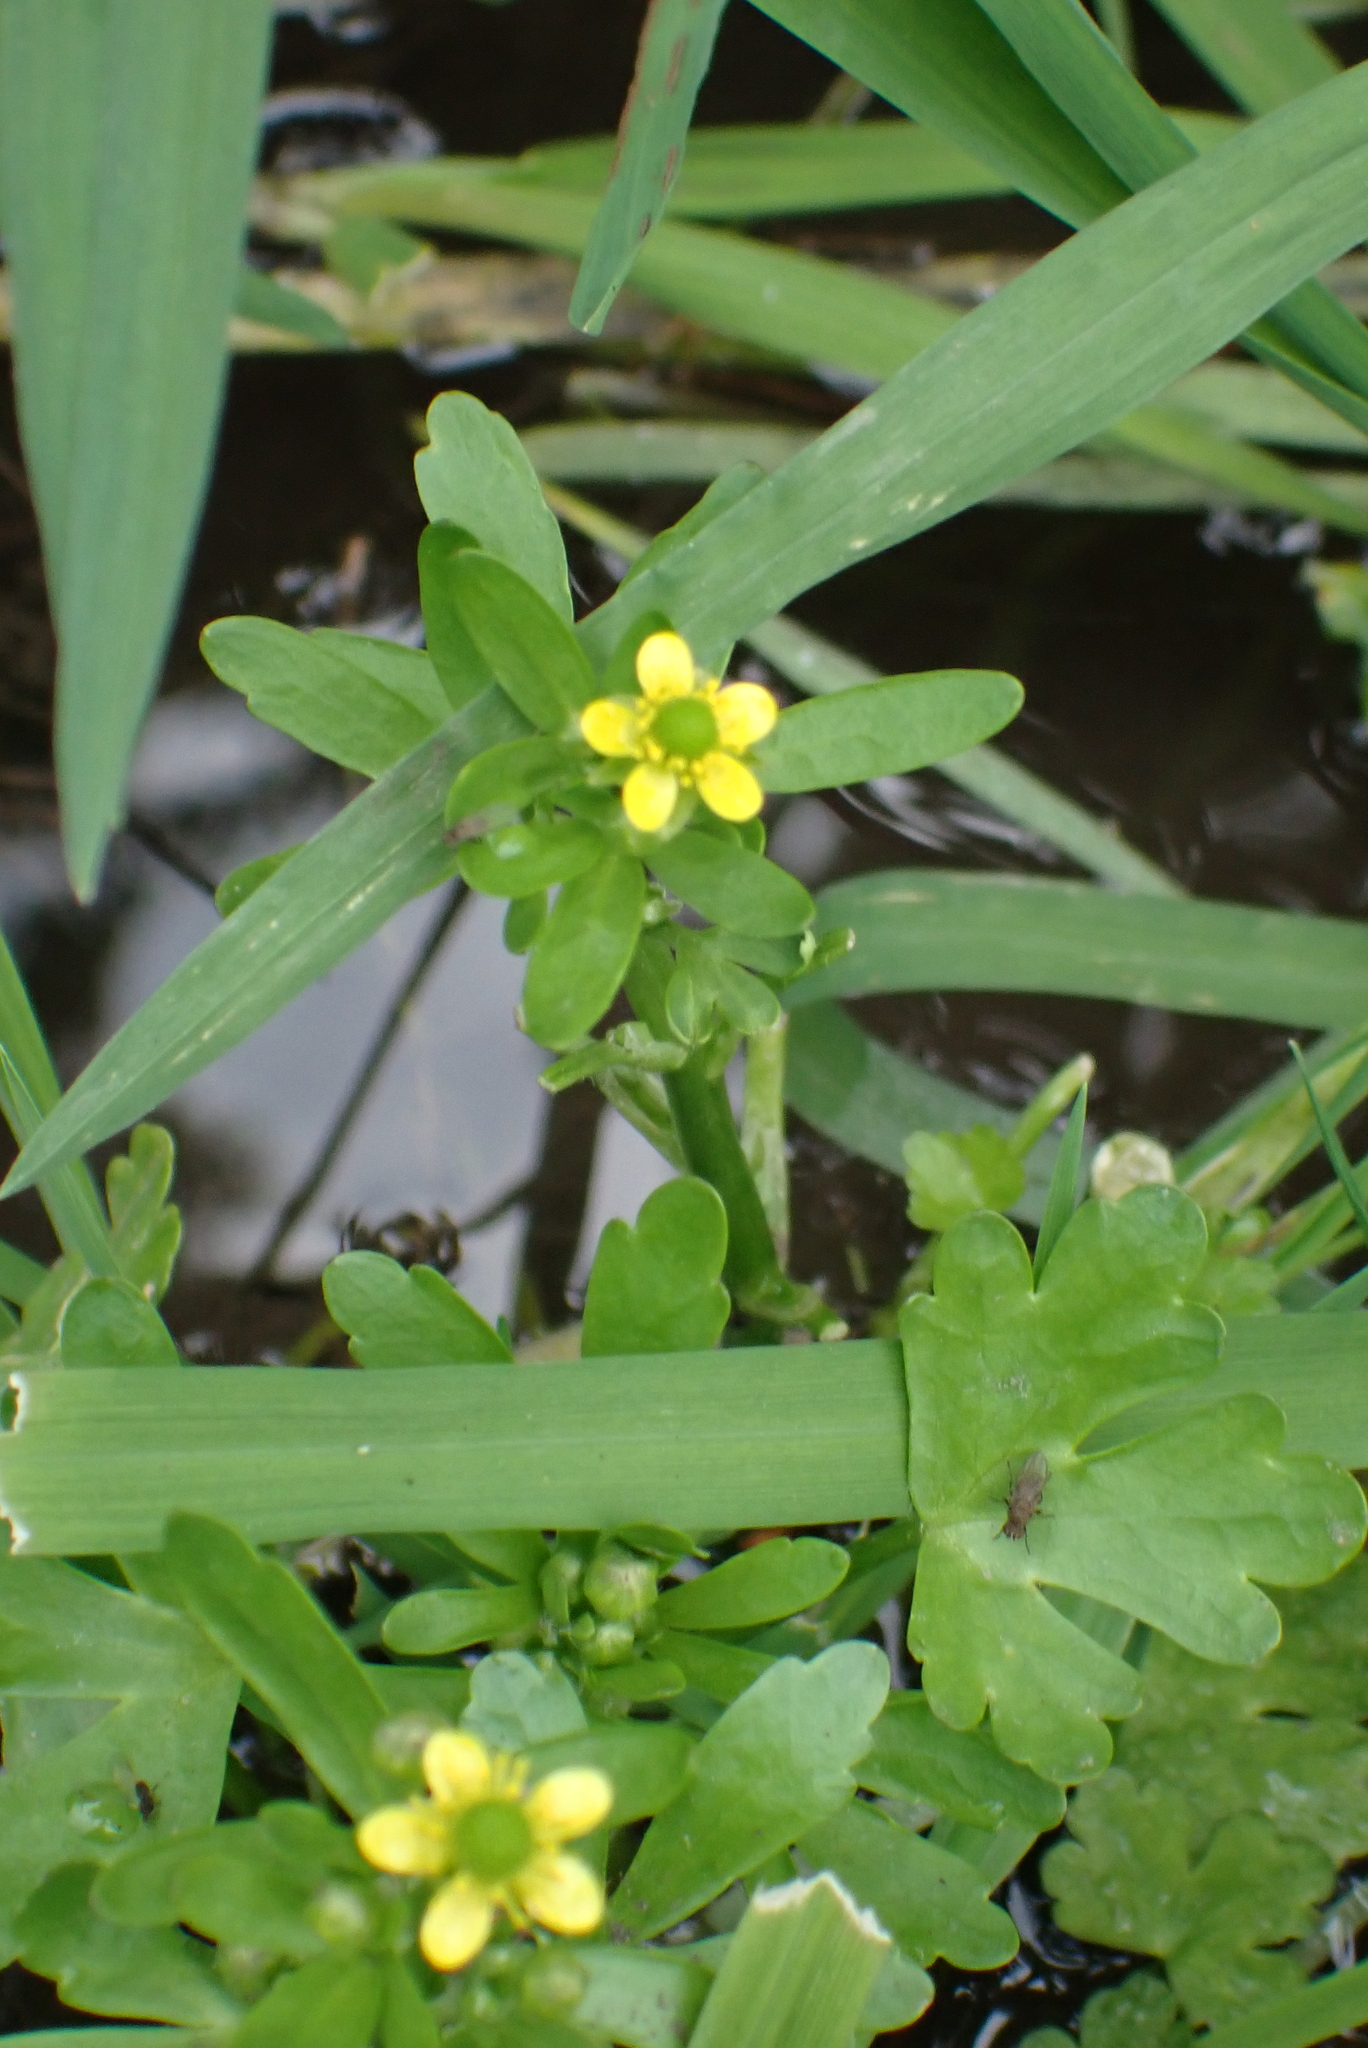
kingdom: Plantae
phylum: Tracheophyta
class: Magnoliopsida
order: Ranunculales
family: Ranunculaceae
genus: Ranunculus
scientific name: Ranunculus sceleratus
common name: Celery-leaved buttercup
